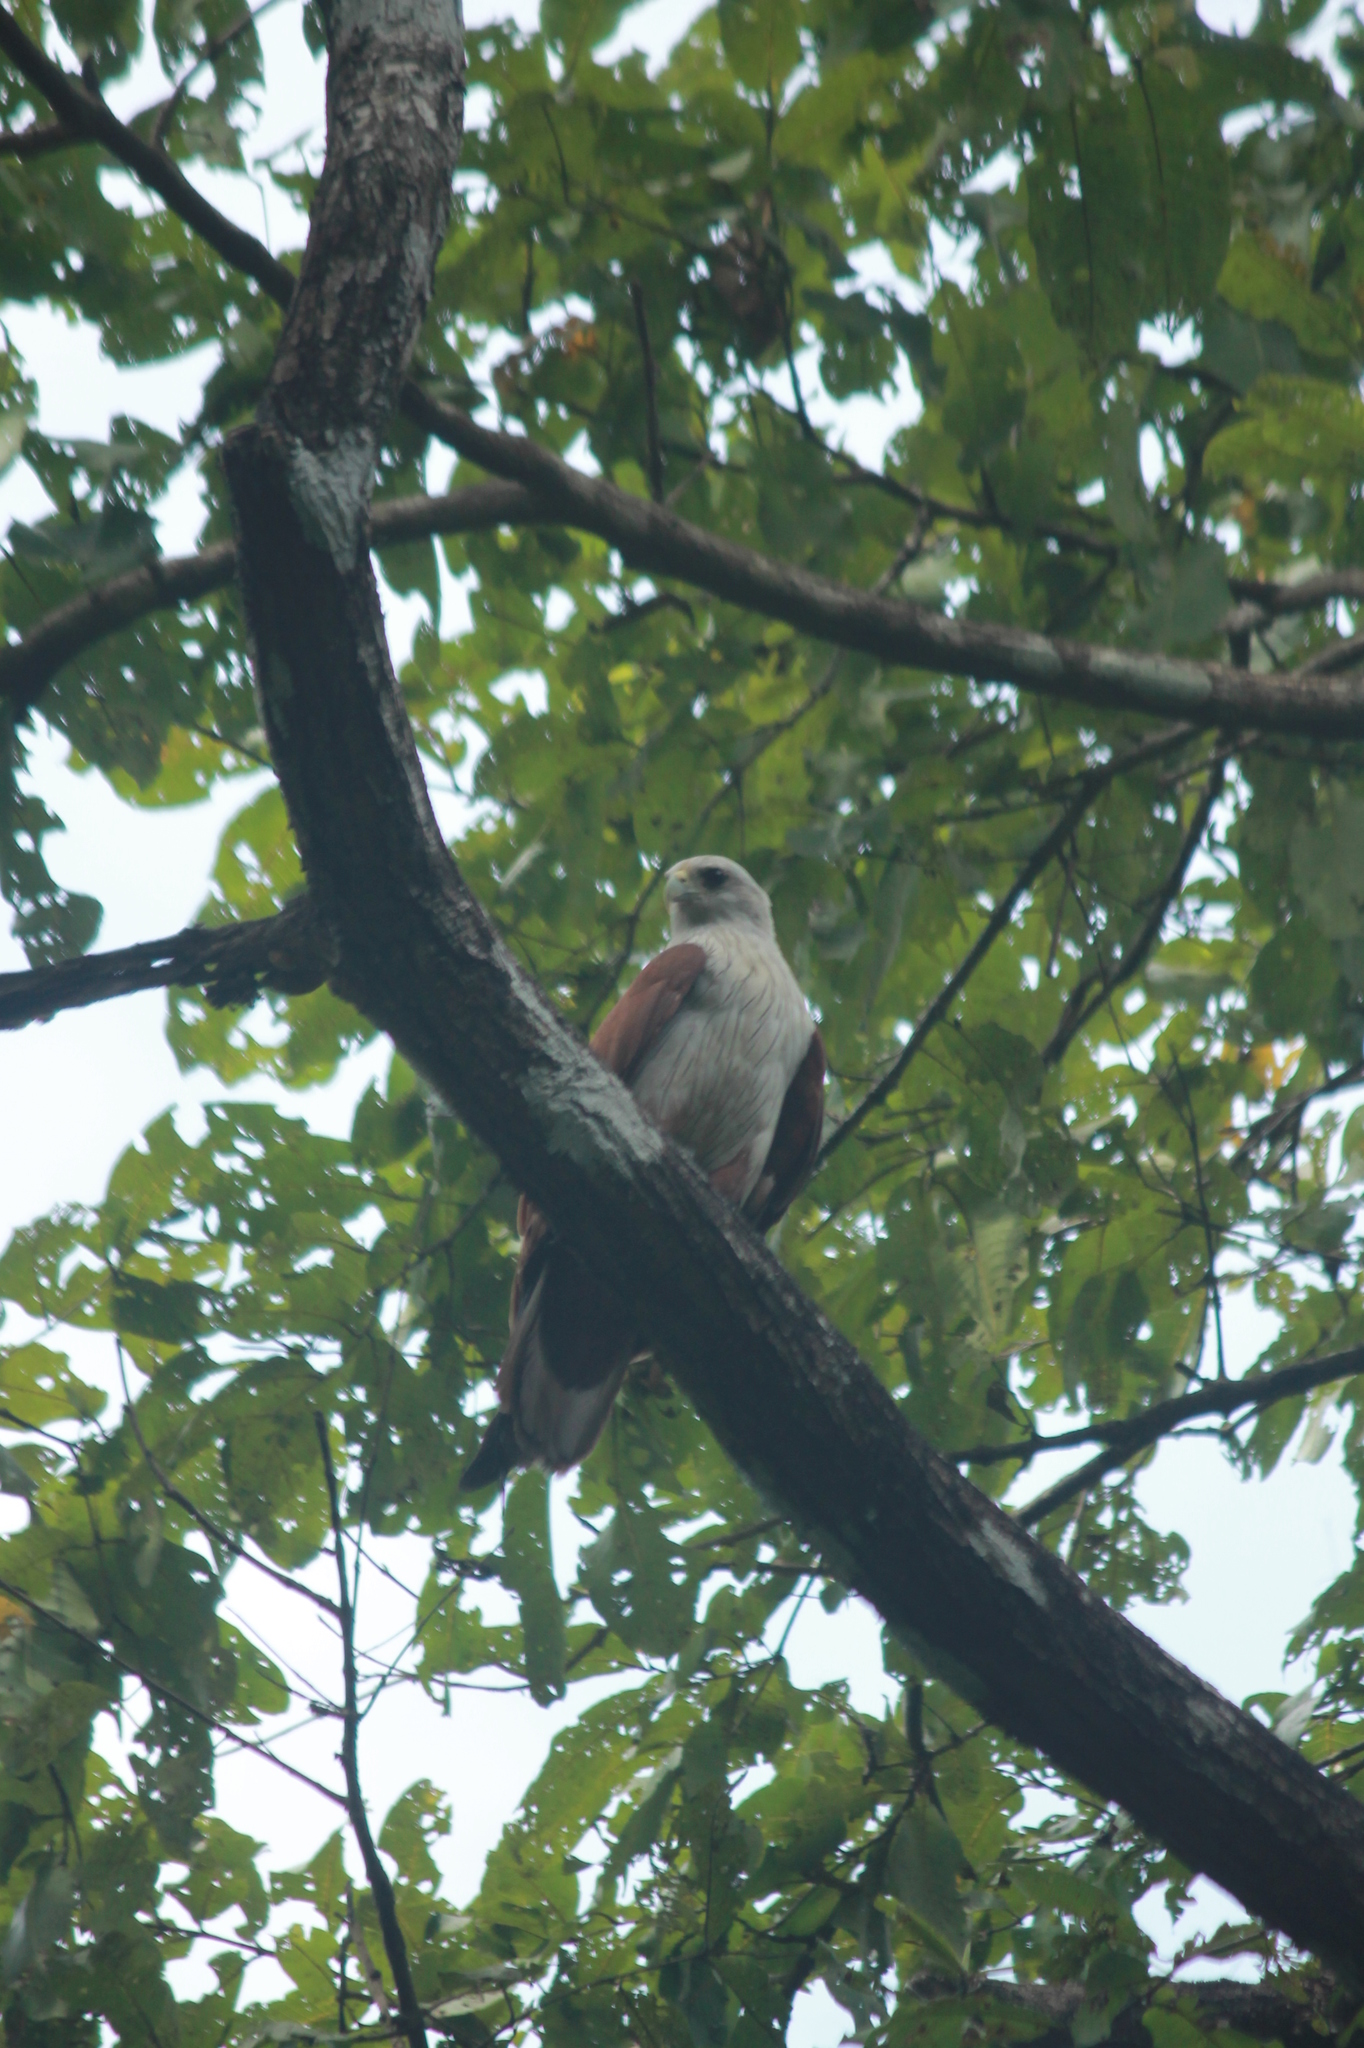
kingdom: Animalia
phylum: Chordata
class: Aves
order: Accipitriformes
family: Accipitridae
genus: Haliastur
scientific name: Haliastur indus
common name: Brahminy kite
